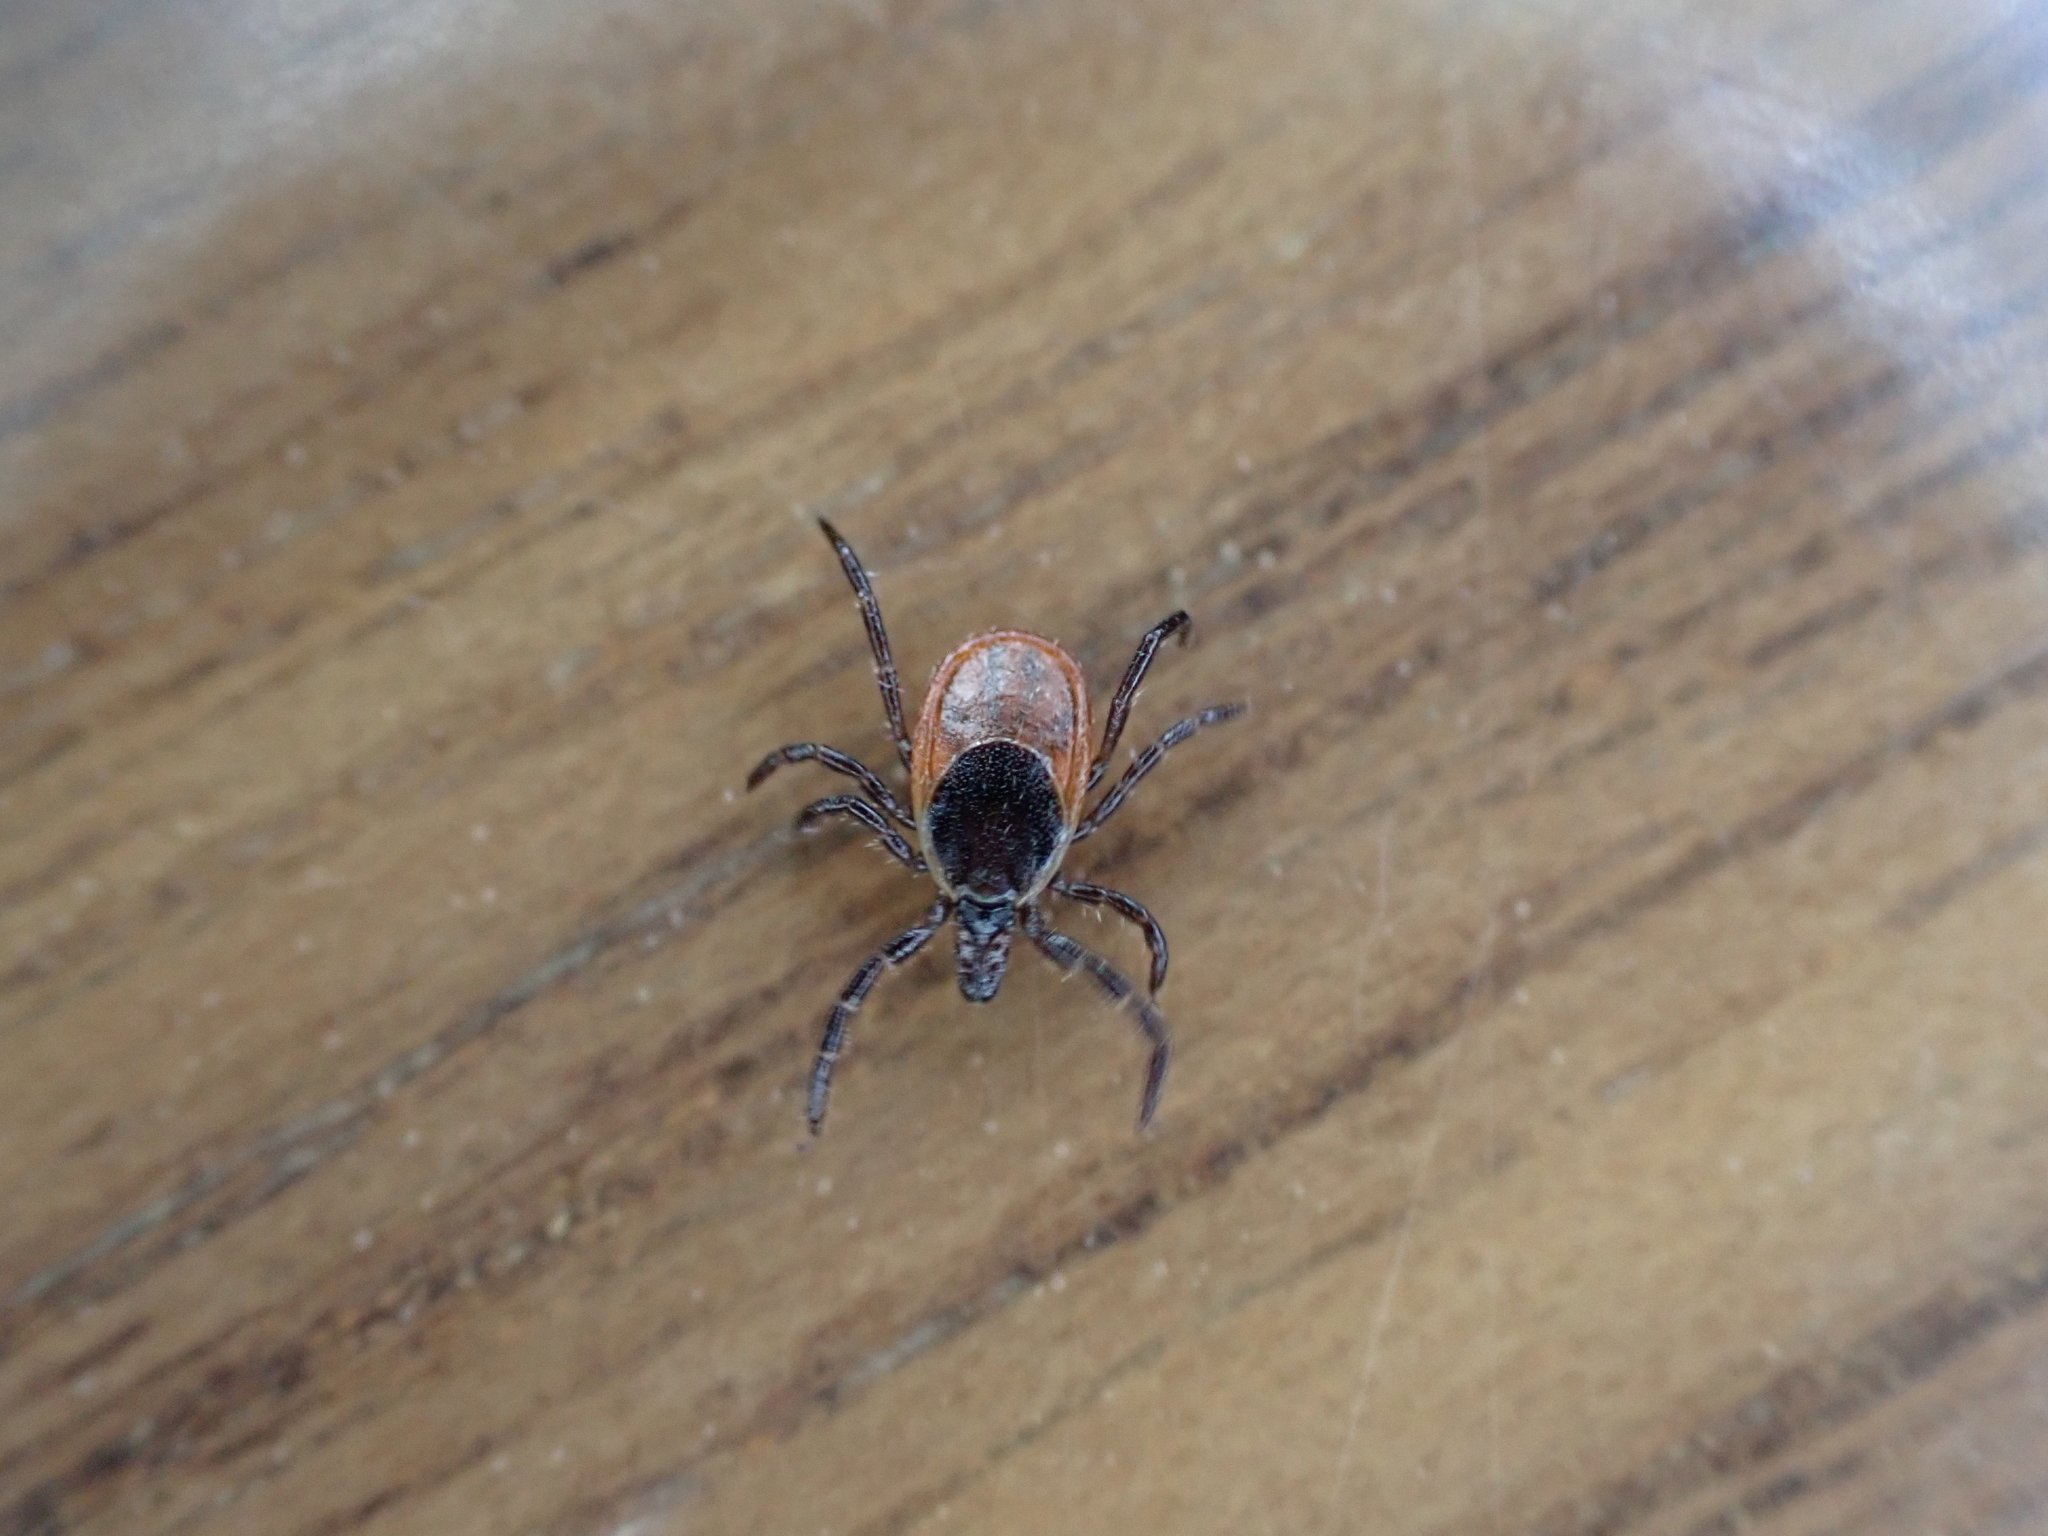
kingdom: Animalia
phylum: Arthropoda
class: Arachnida
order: Ixodida
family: Ixodidae
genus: Ixodes
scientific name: Ixodes scapularis
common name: Black legged tick
